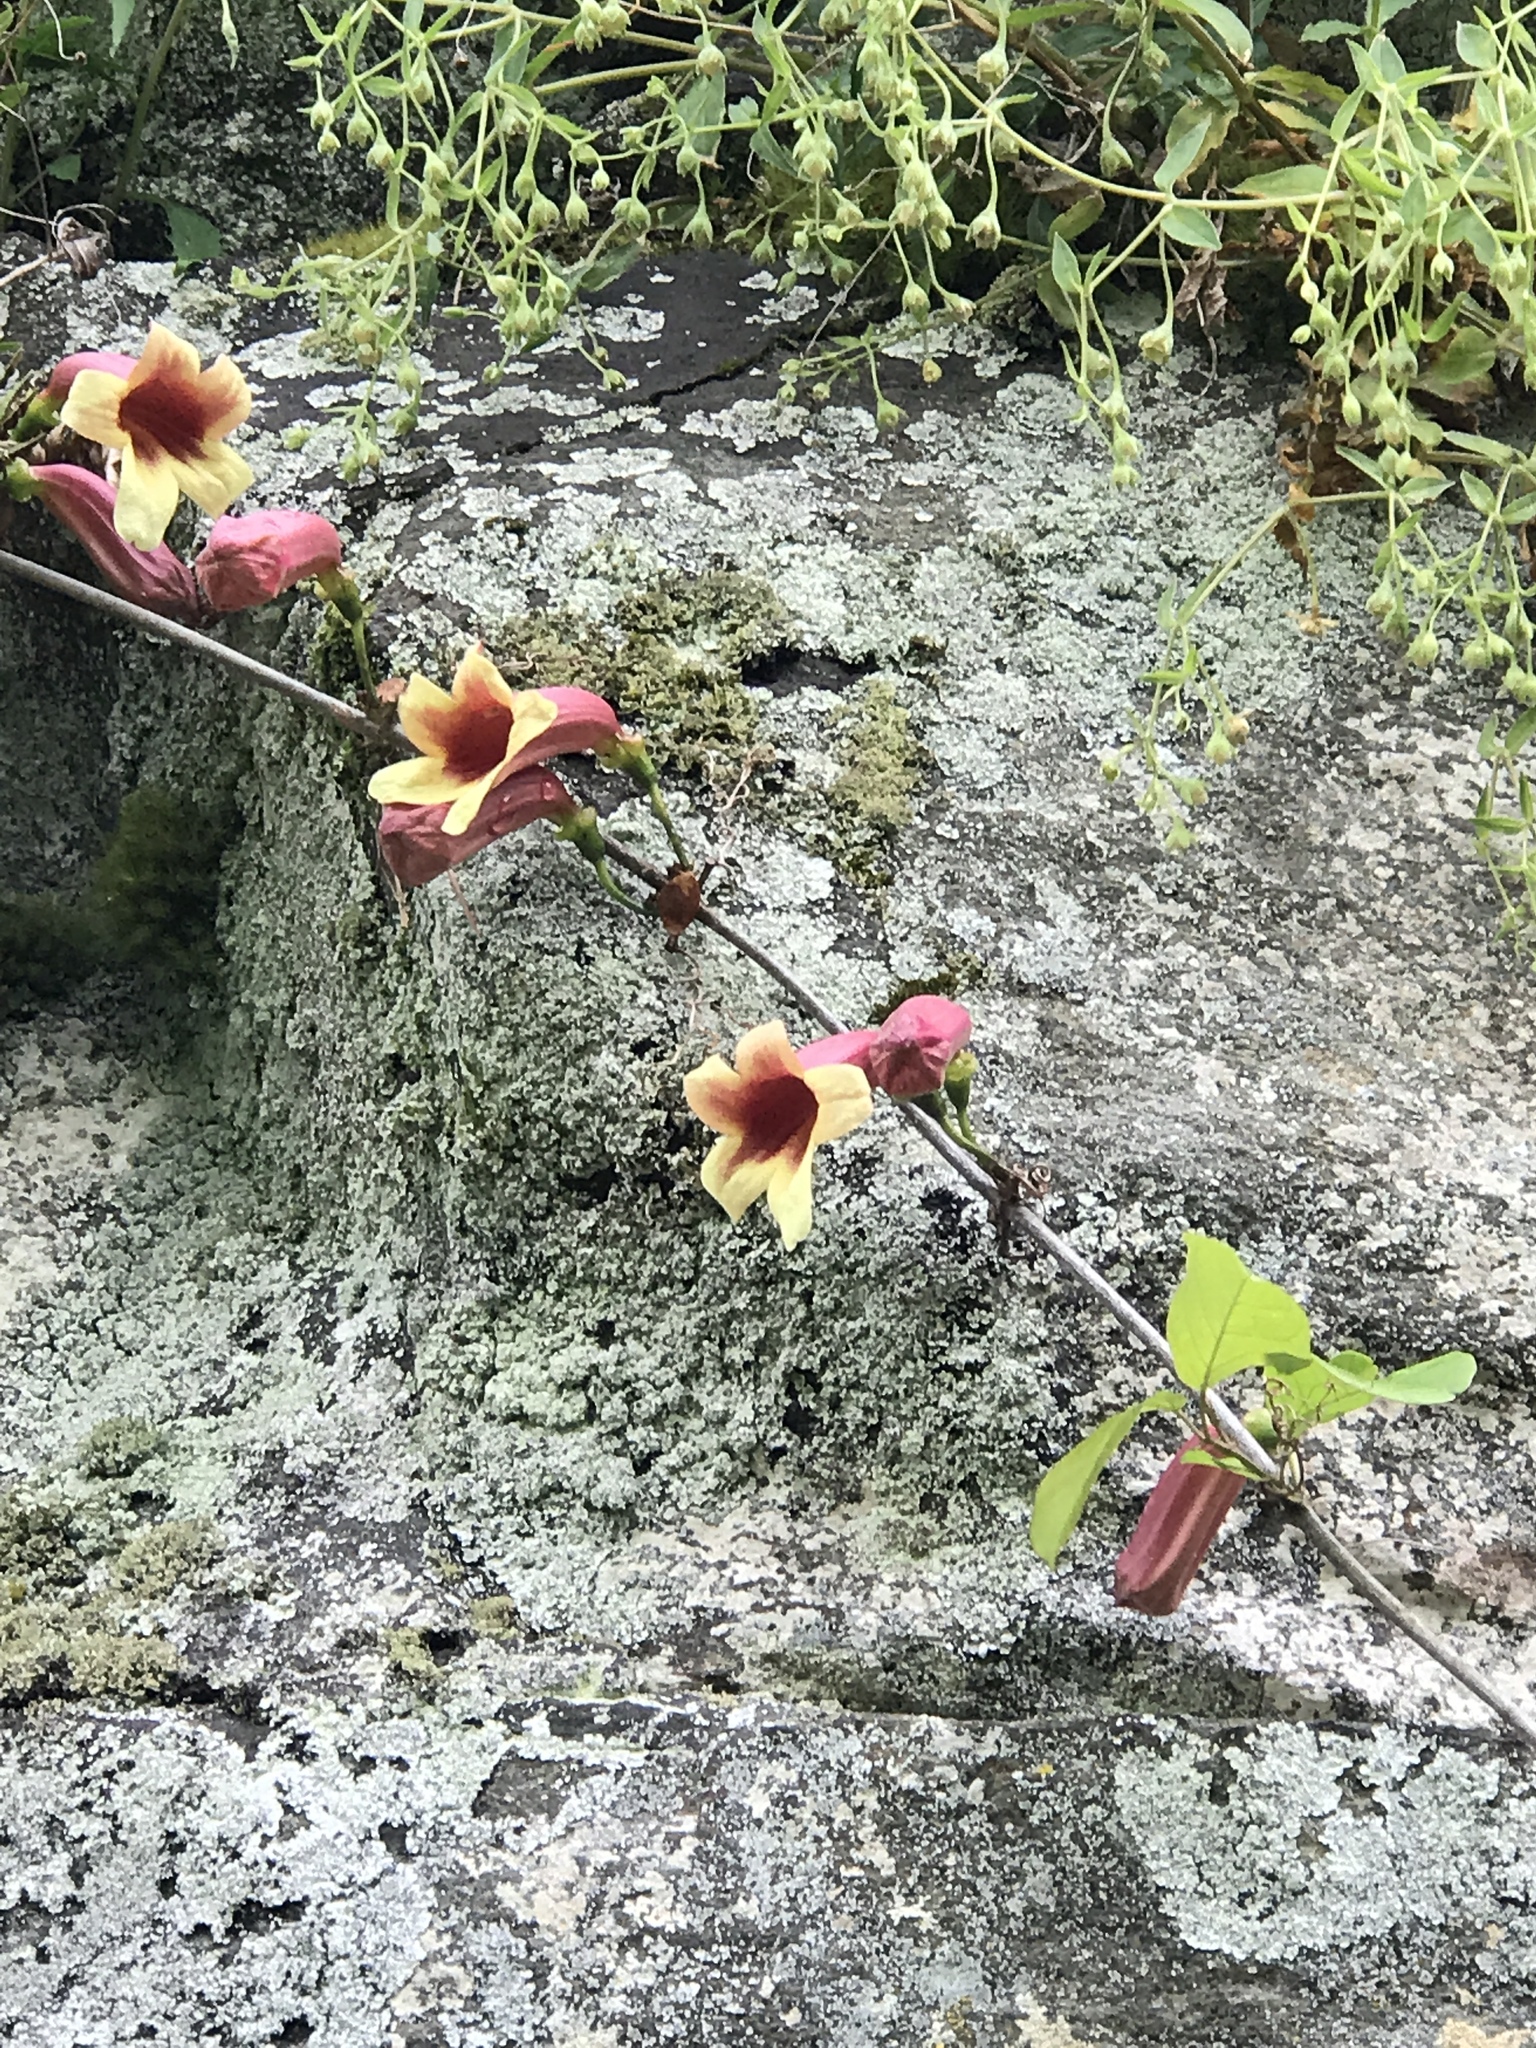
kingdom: Plantae
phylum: Tracheophyta
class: Magnoliopsida
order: Lamiales
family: Bignoniaceae
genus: Bignonia
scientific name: Bignonia capreolata
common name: Crossvine
